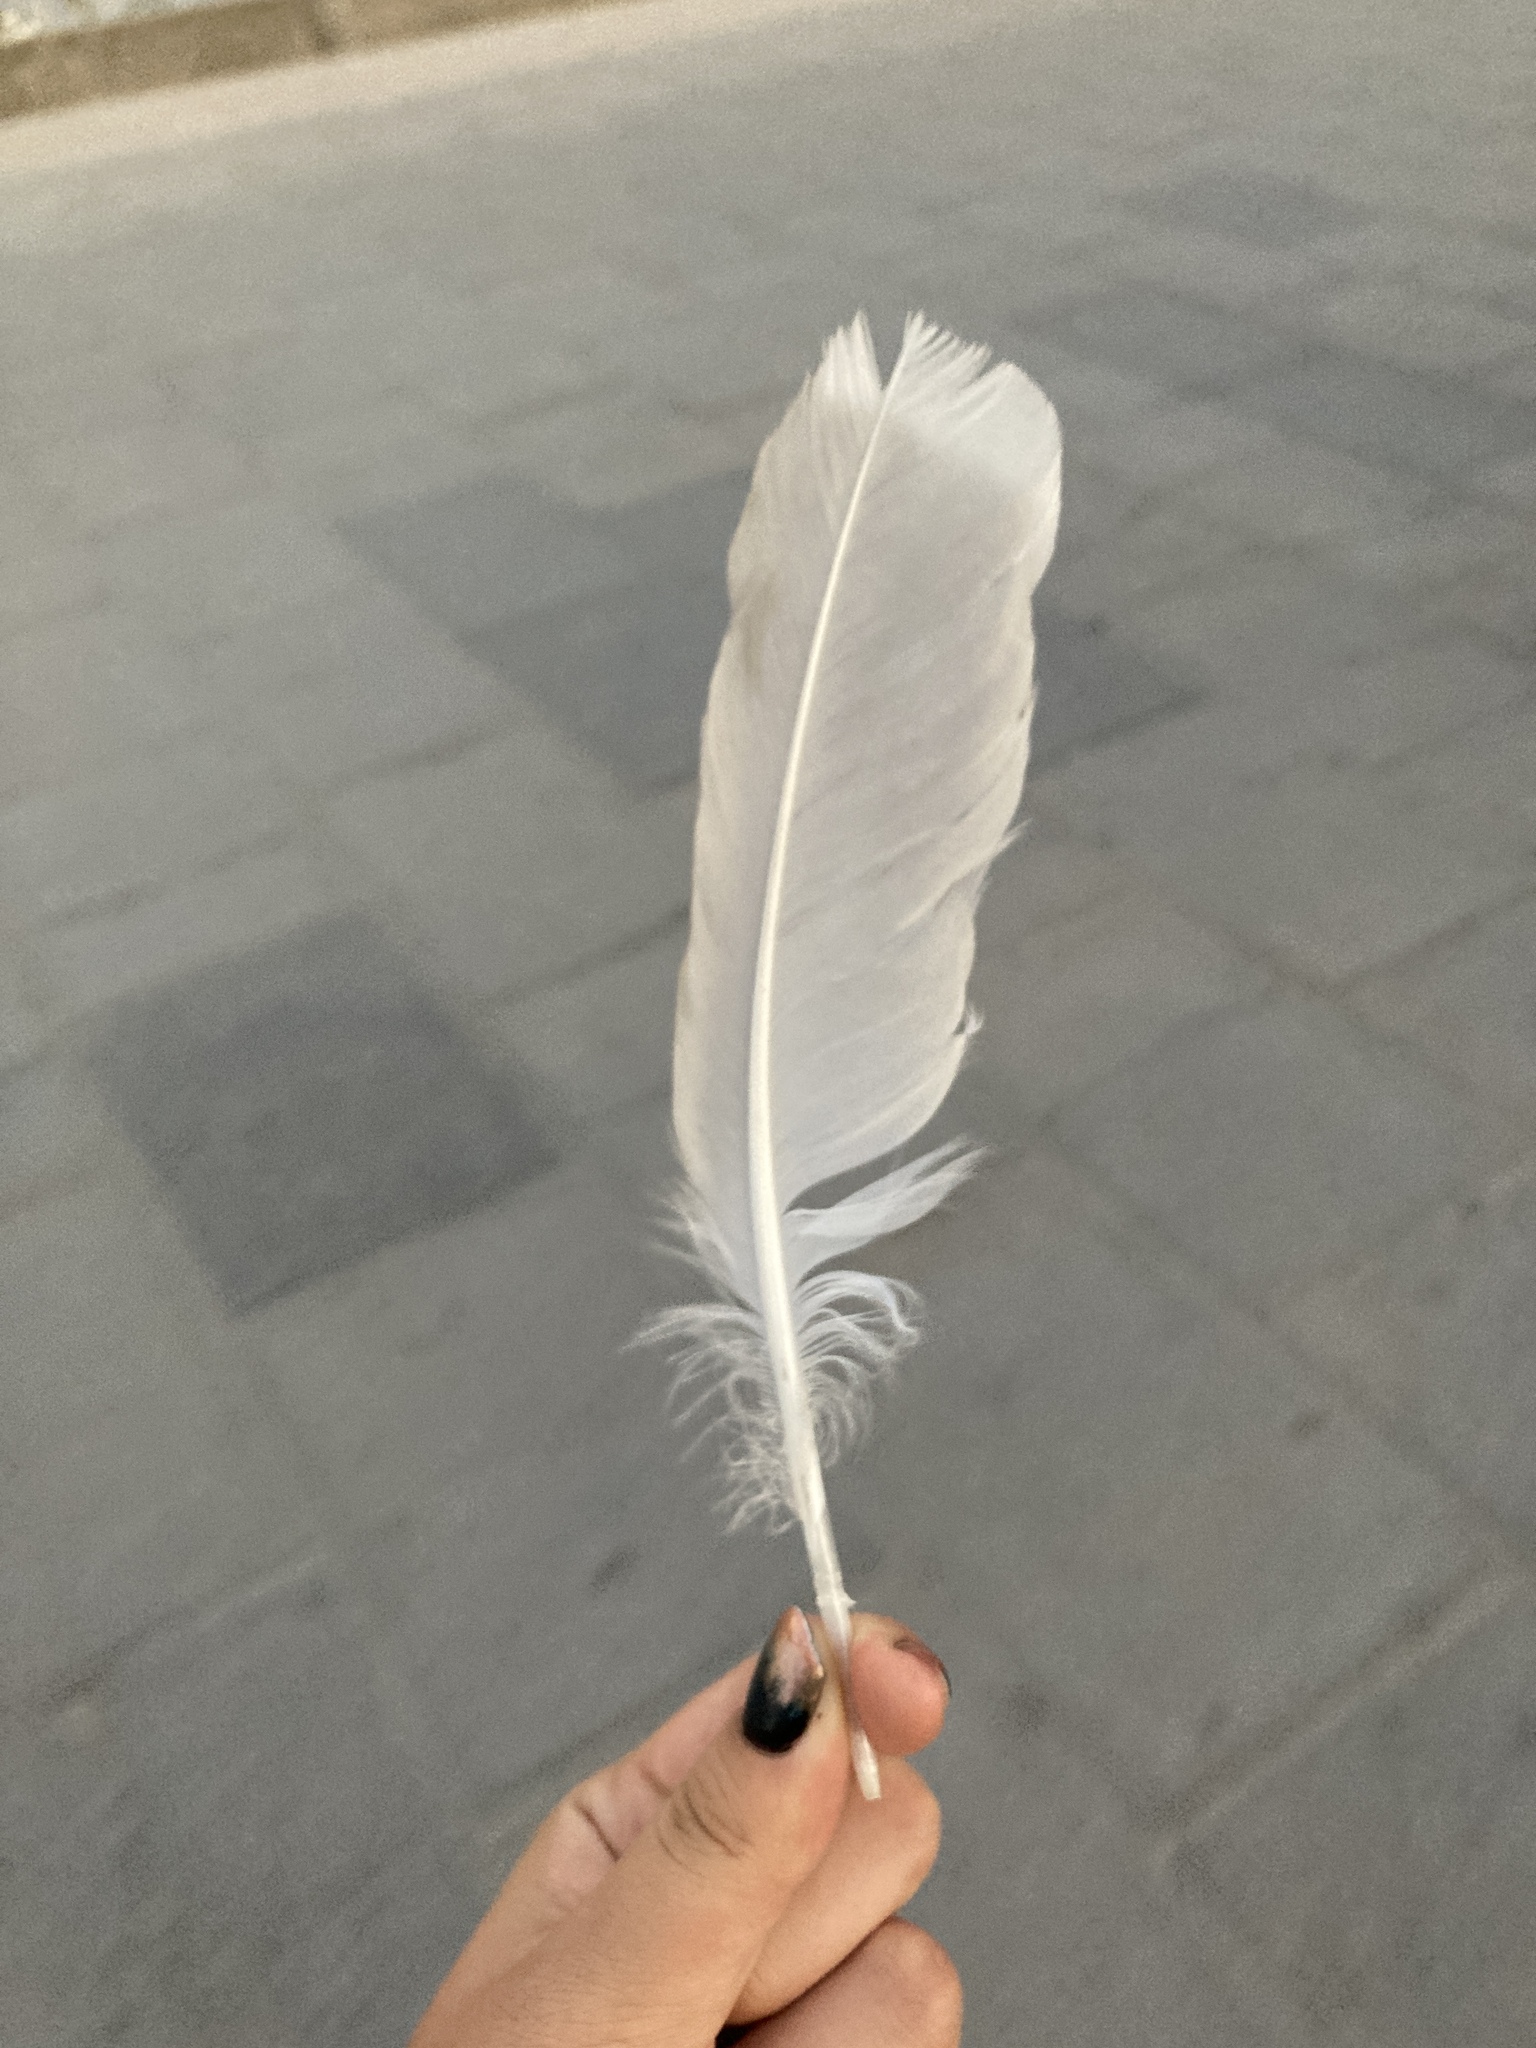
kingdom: Animalia
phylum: Chordata
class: Aves
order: Charadriiformes
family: Laridae
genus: Larus
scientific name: Larus michahellis
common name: Yellow-legged gull
